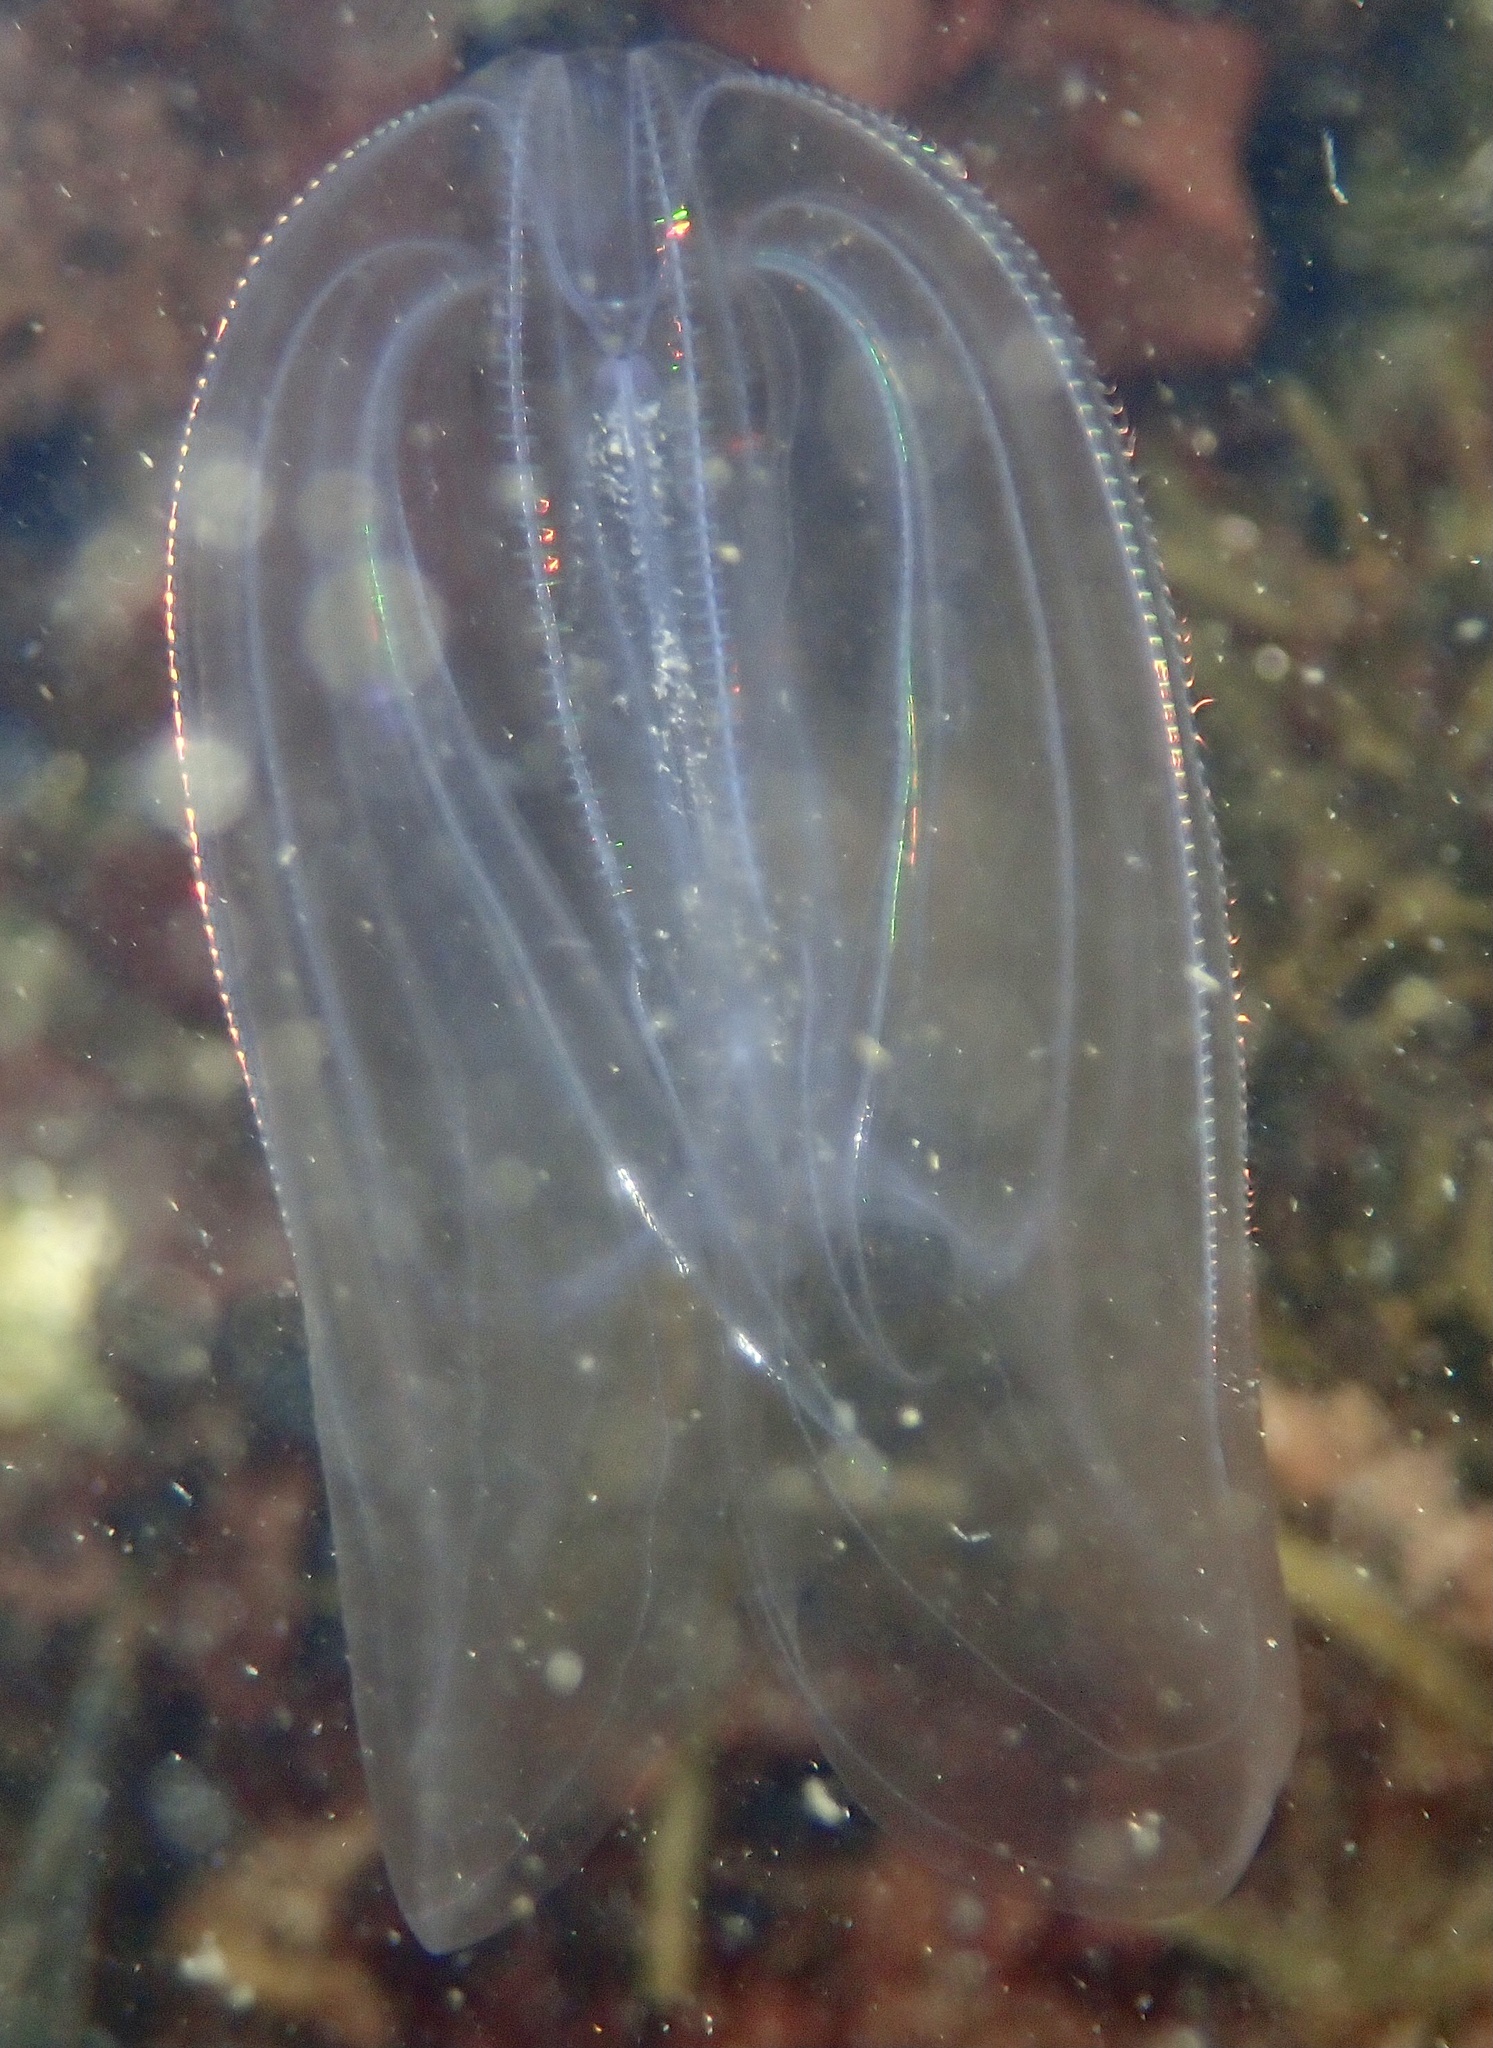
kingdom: Animalia
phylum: Ctenophora
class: Tentaculata
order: Lobata
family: Bolinopsidae
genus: Mnemiopsis
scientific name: Mnemiopsis leidyi
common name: American comb jelly
